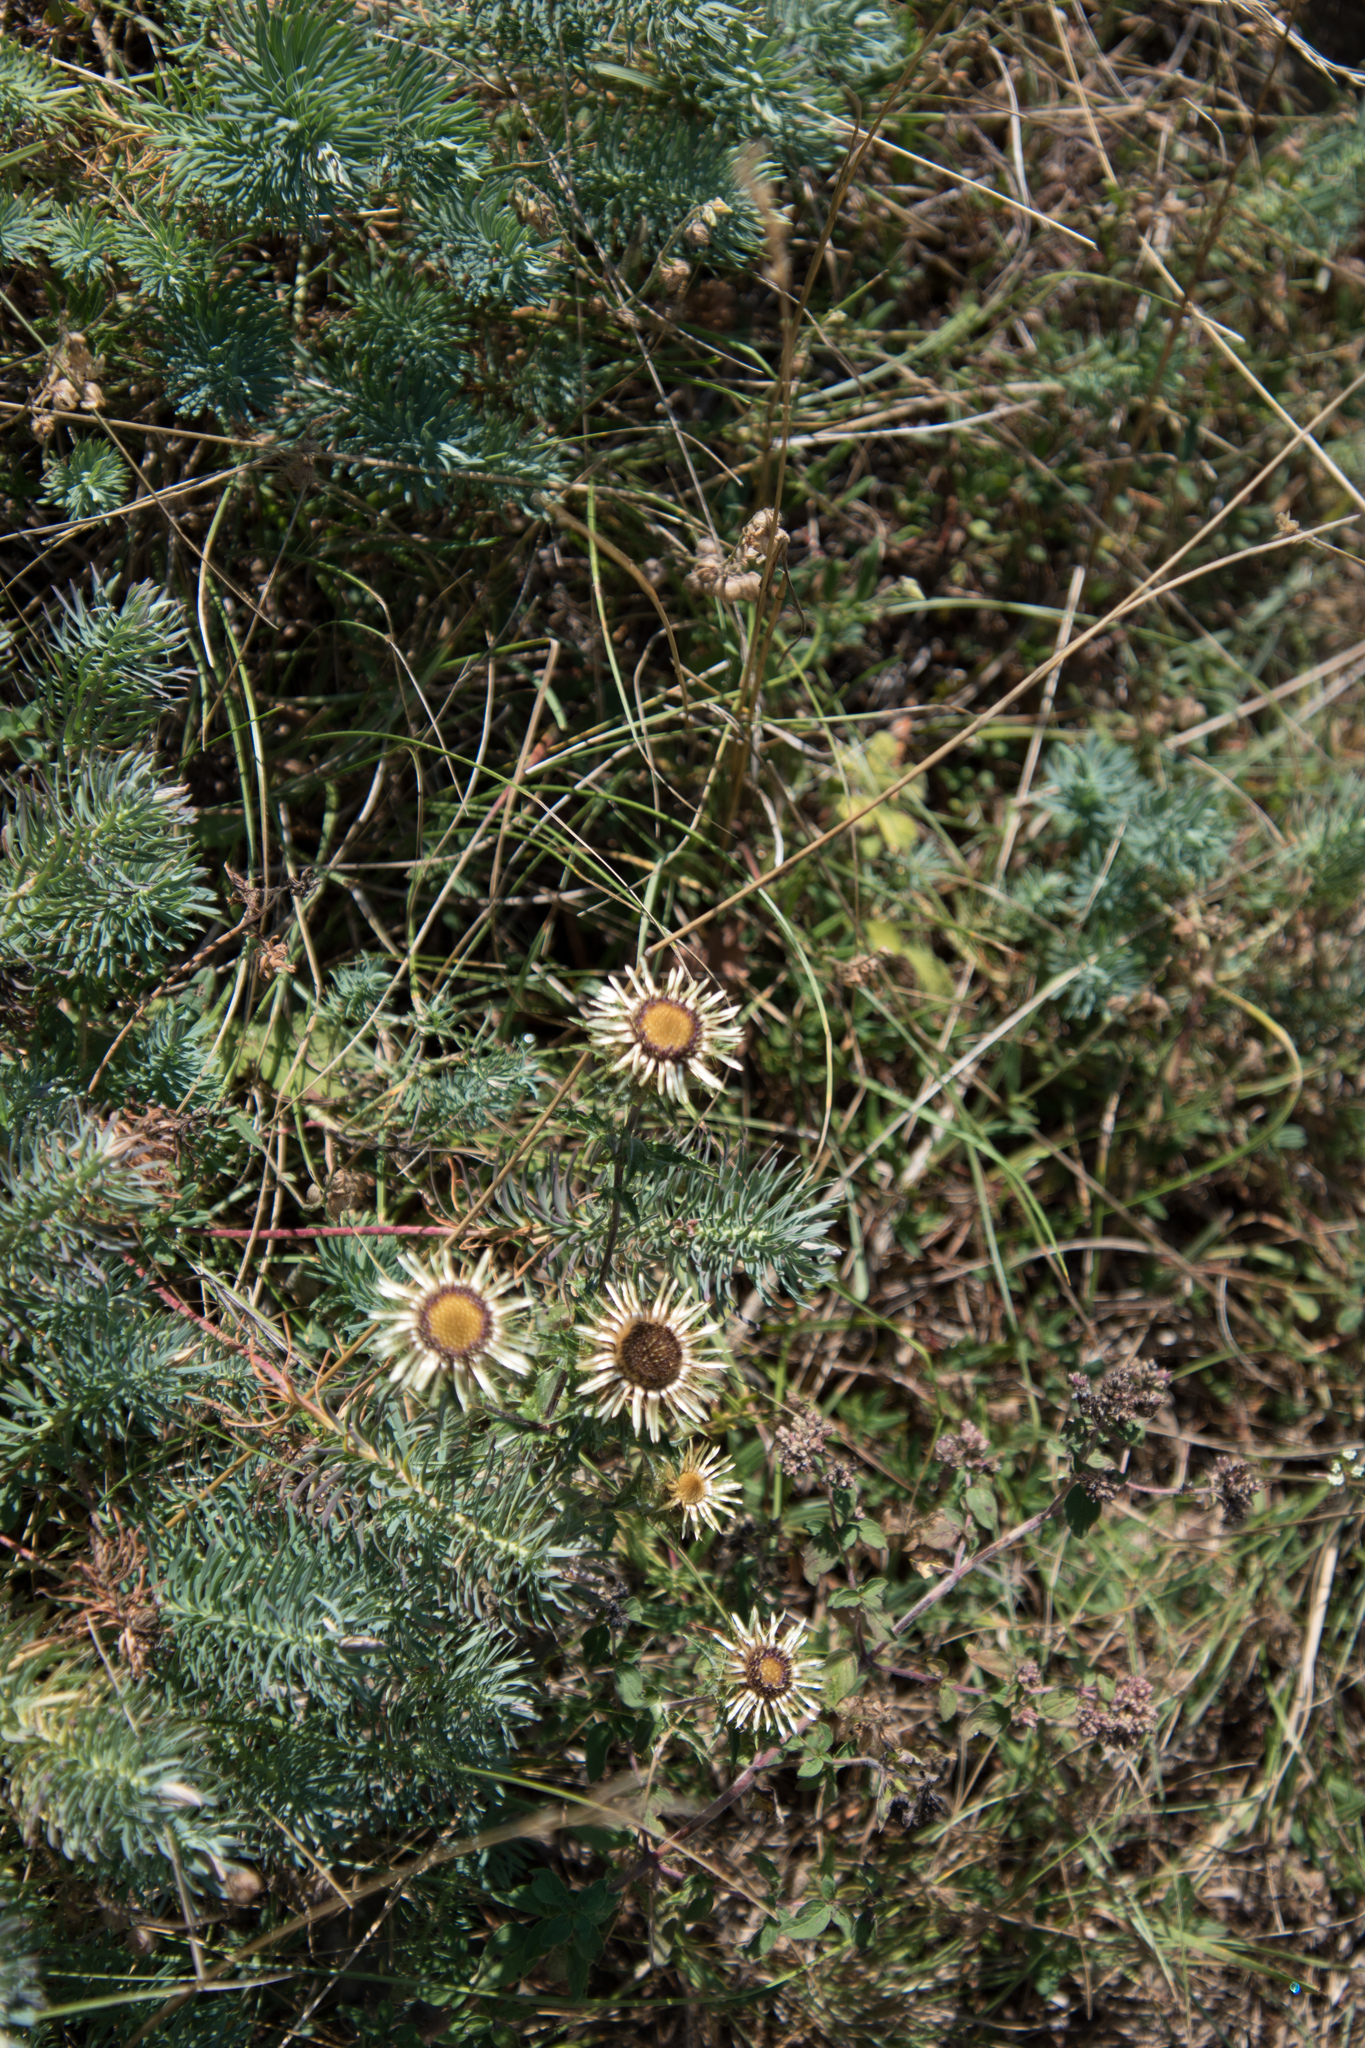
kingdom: Plantae
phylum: Tracheophyta
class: Magnoliopsida
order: Asterales
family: Asteraceae
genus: Carlina
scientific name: Carlina vulgaris
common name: Carline thistle
